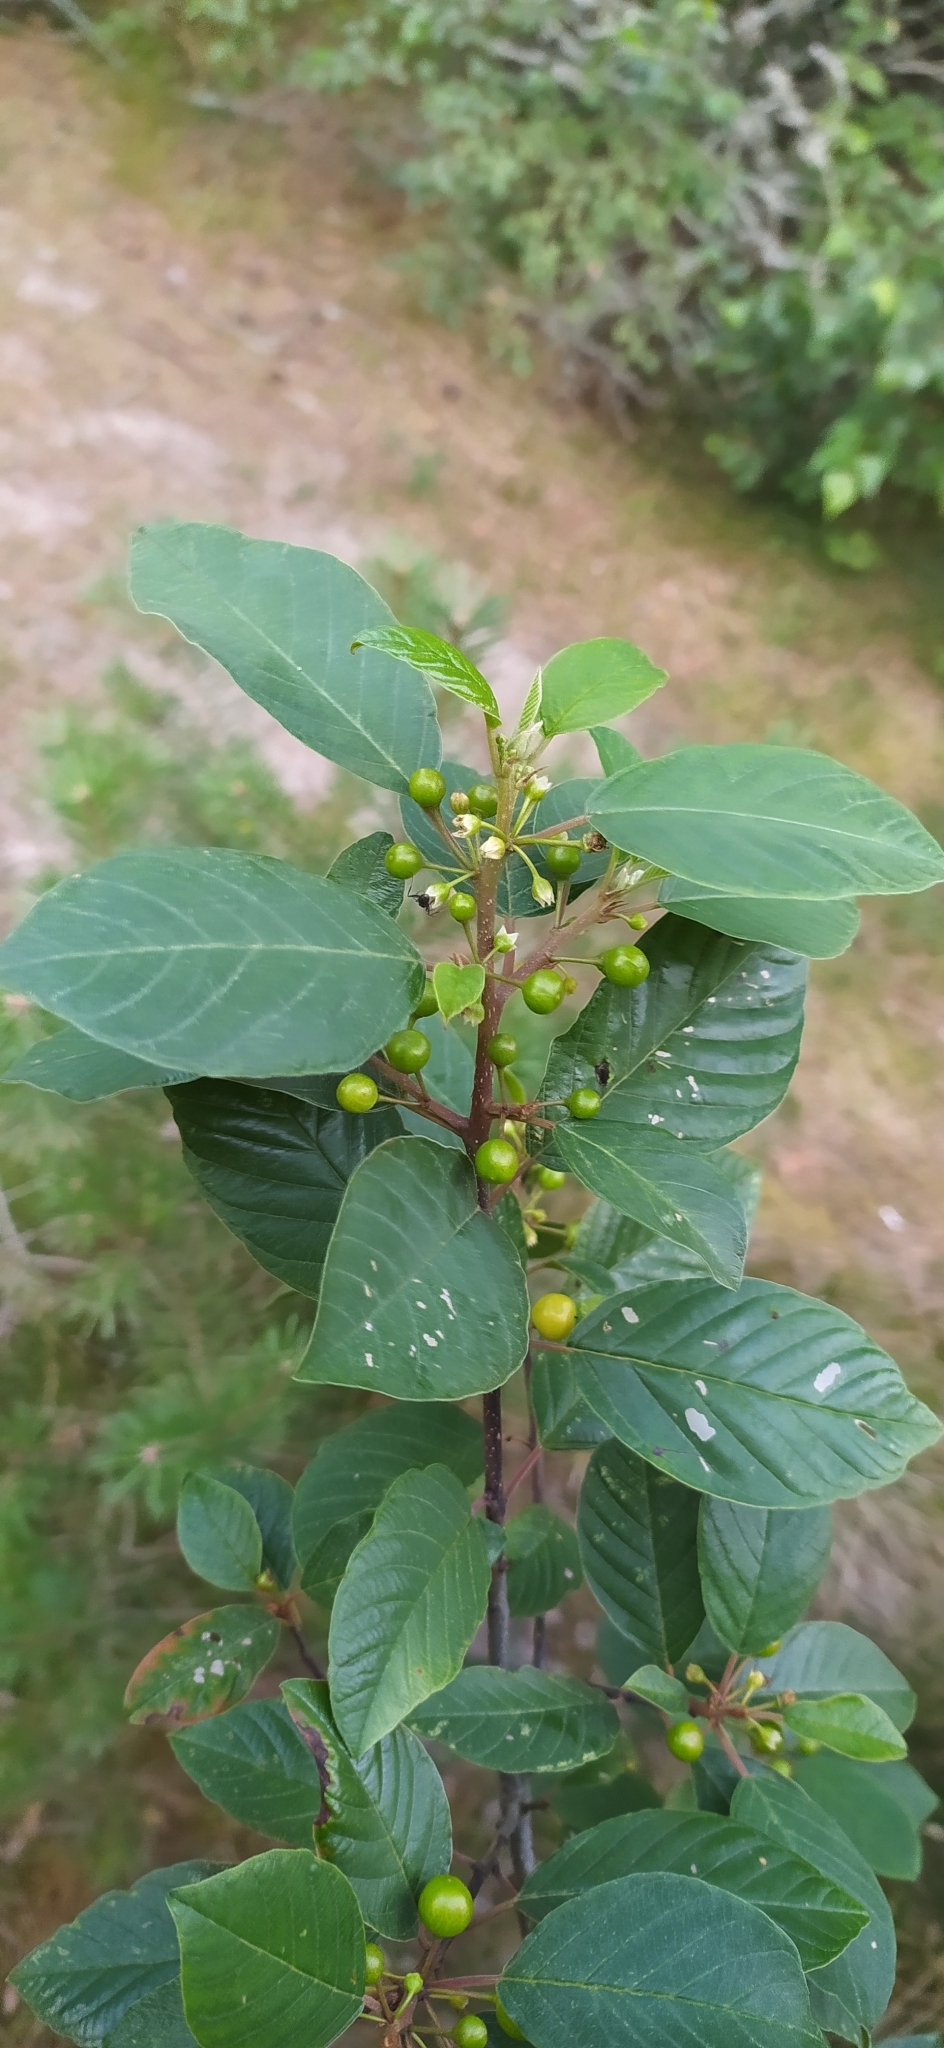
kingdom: Plantae
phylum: Tracheophyta
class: Magnoliopsida
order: Rosales
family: Rhamnaceae
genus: Frangula
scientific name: Frangula alnus
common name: Alder buckthorn
